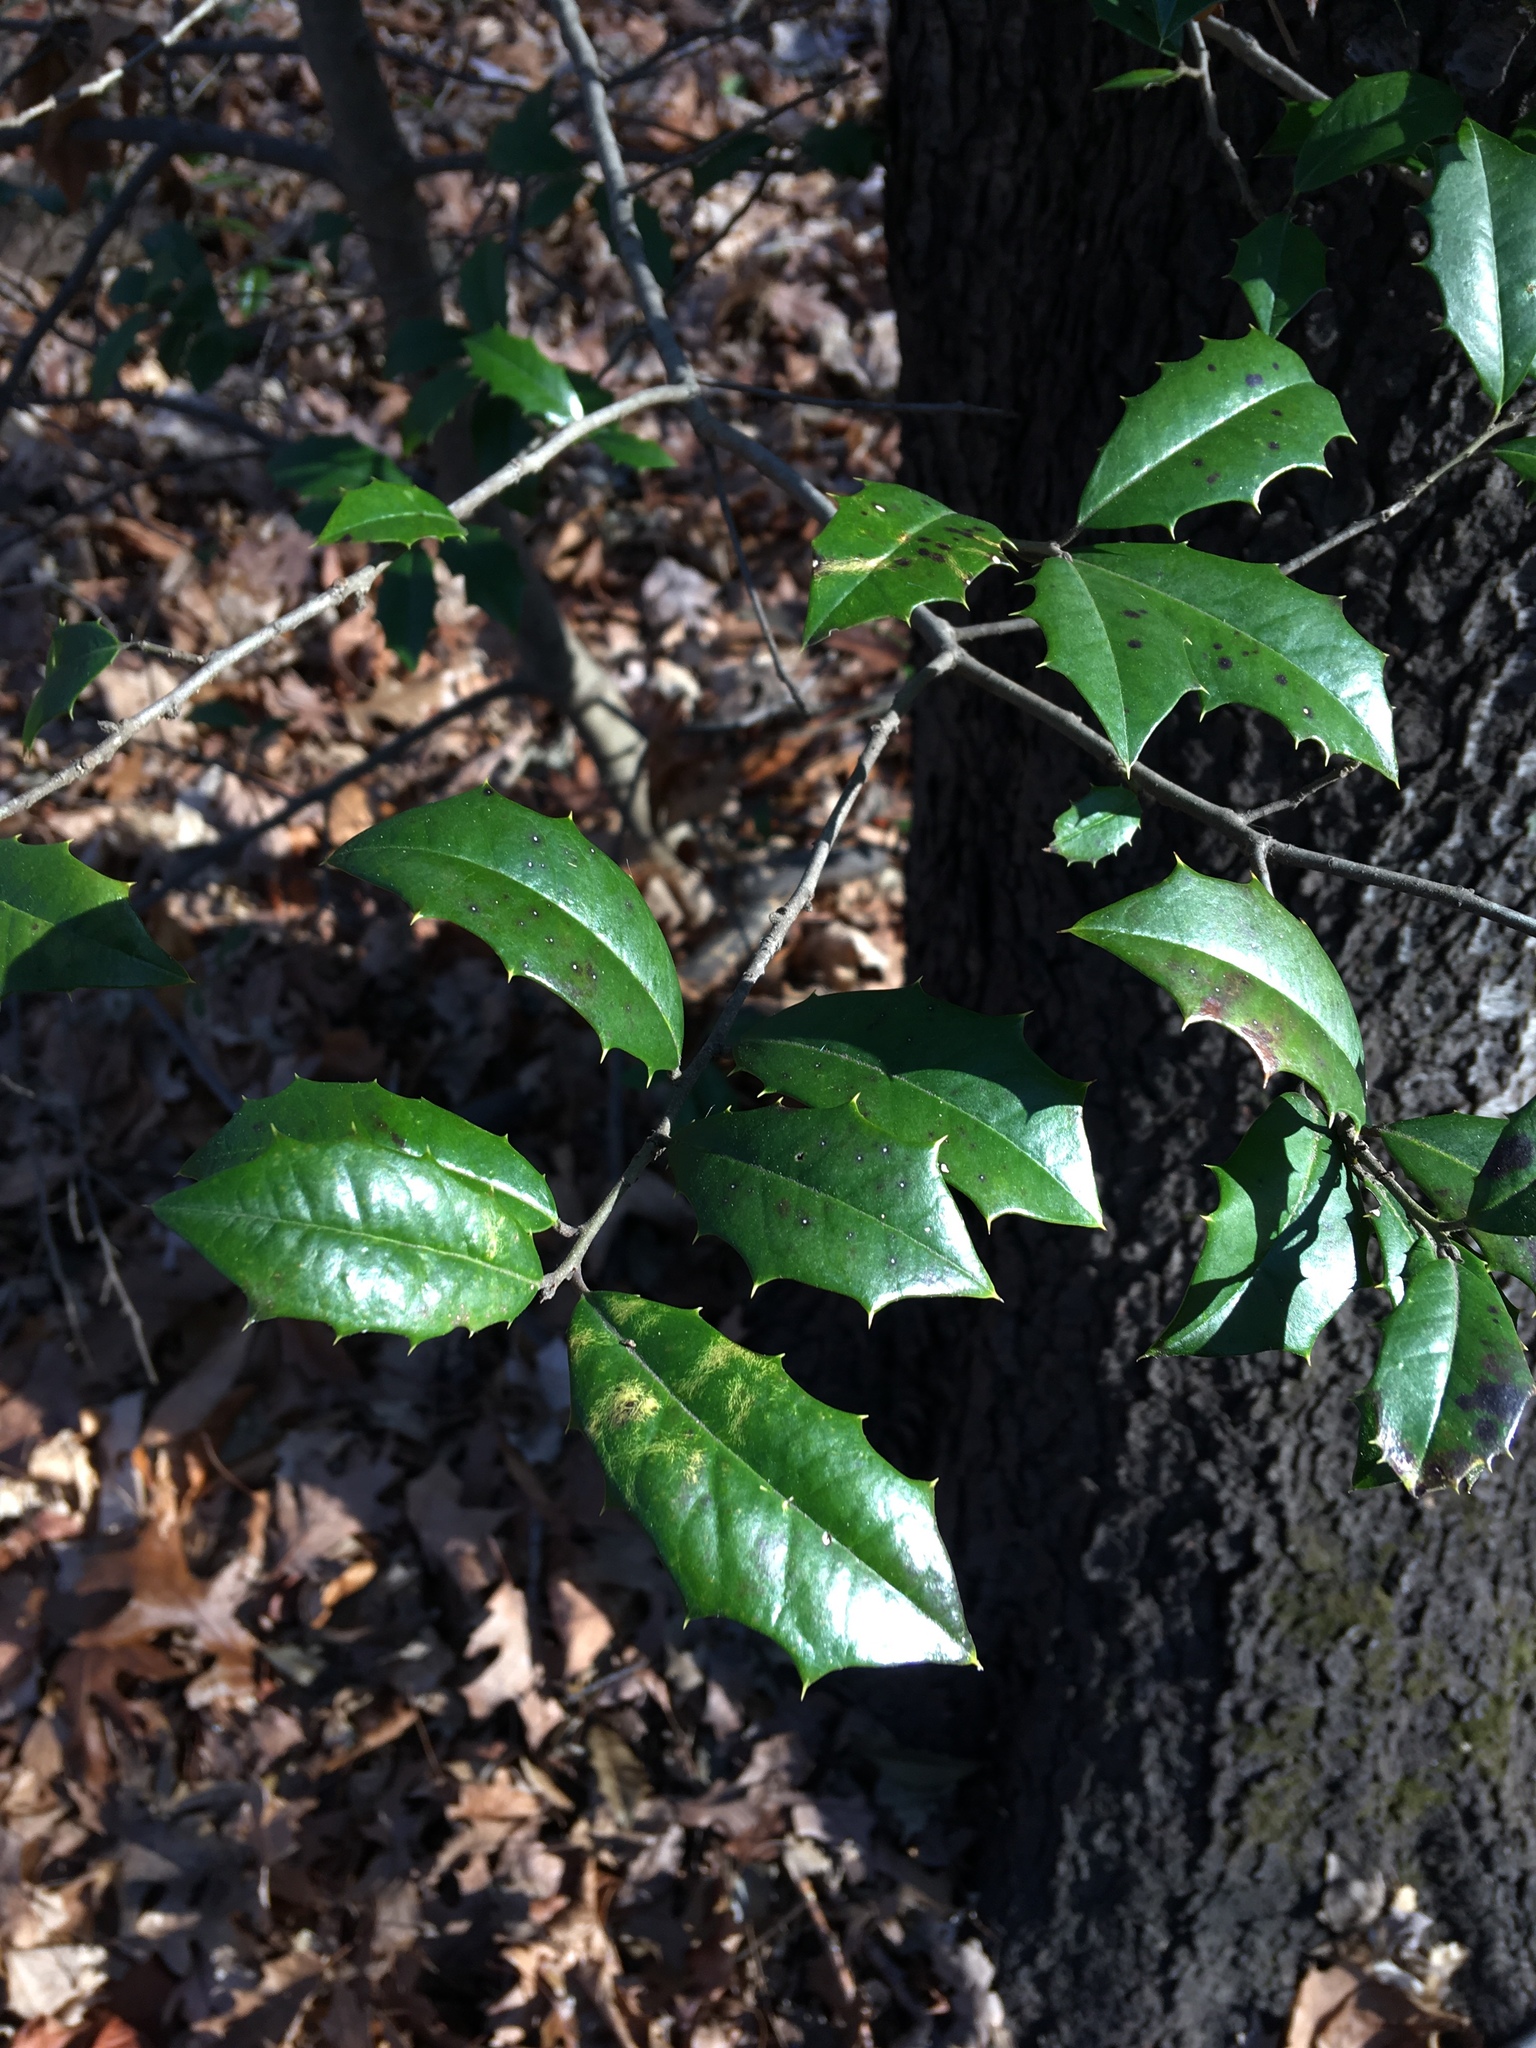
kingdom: Plantae
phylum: Tracheophyta
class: Magnoliopsida
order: Aquifoliales
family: Aquifoliaceae
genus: Ilex
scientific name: Ilex opaca
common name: American holly
